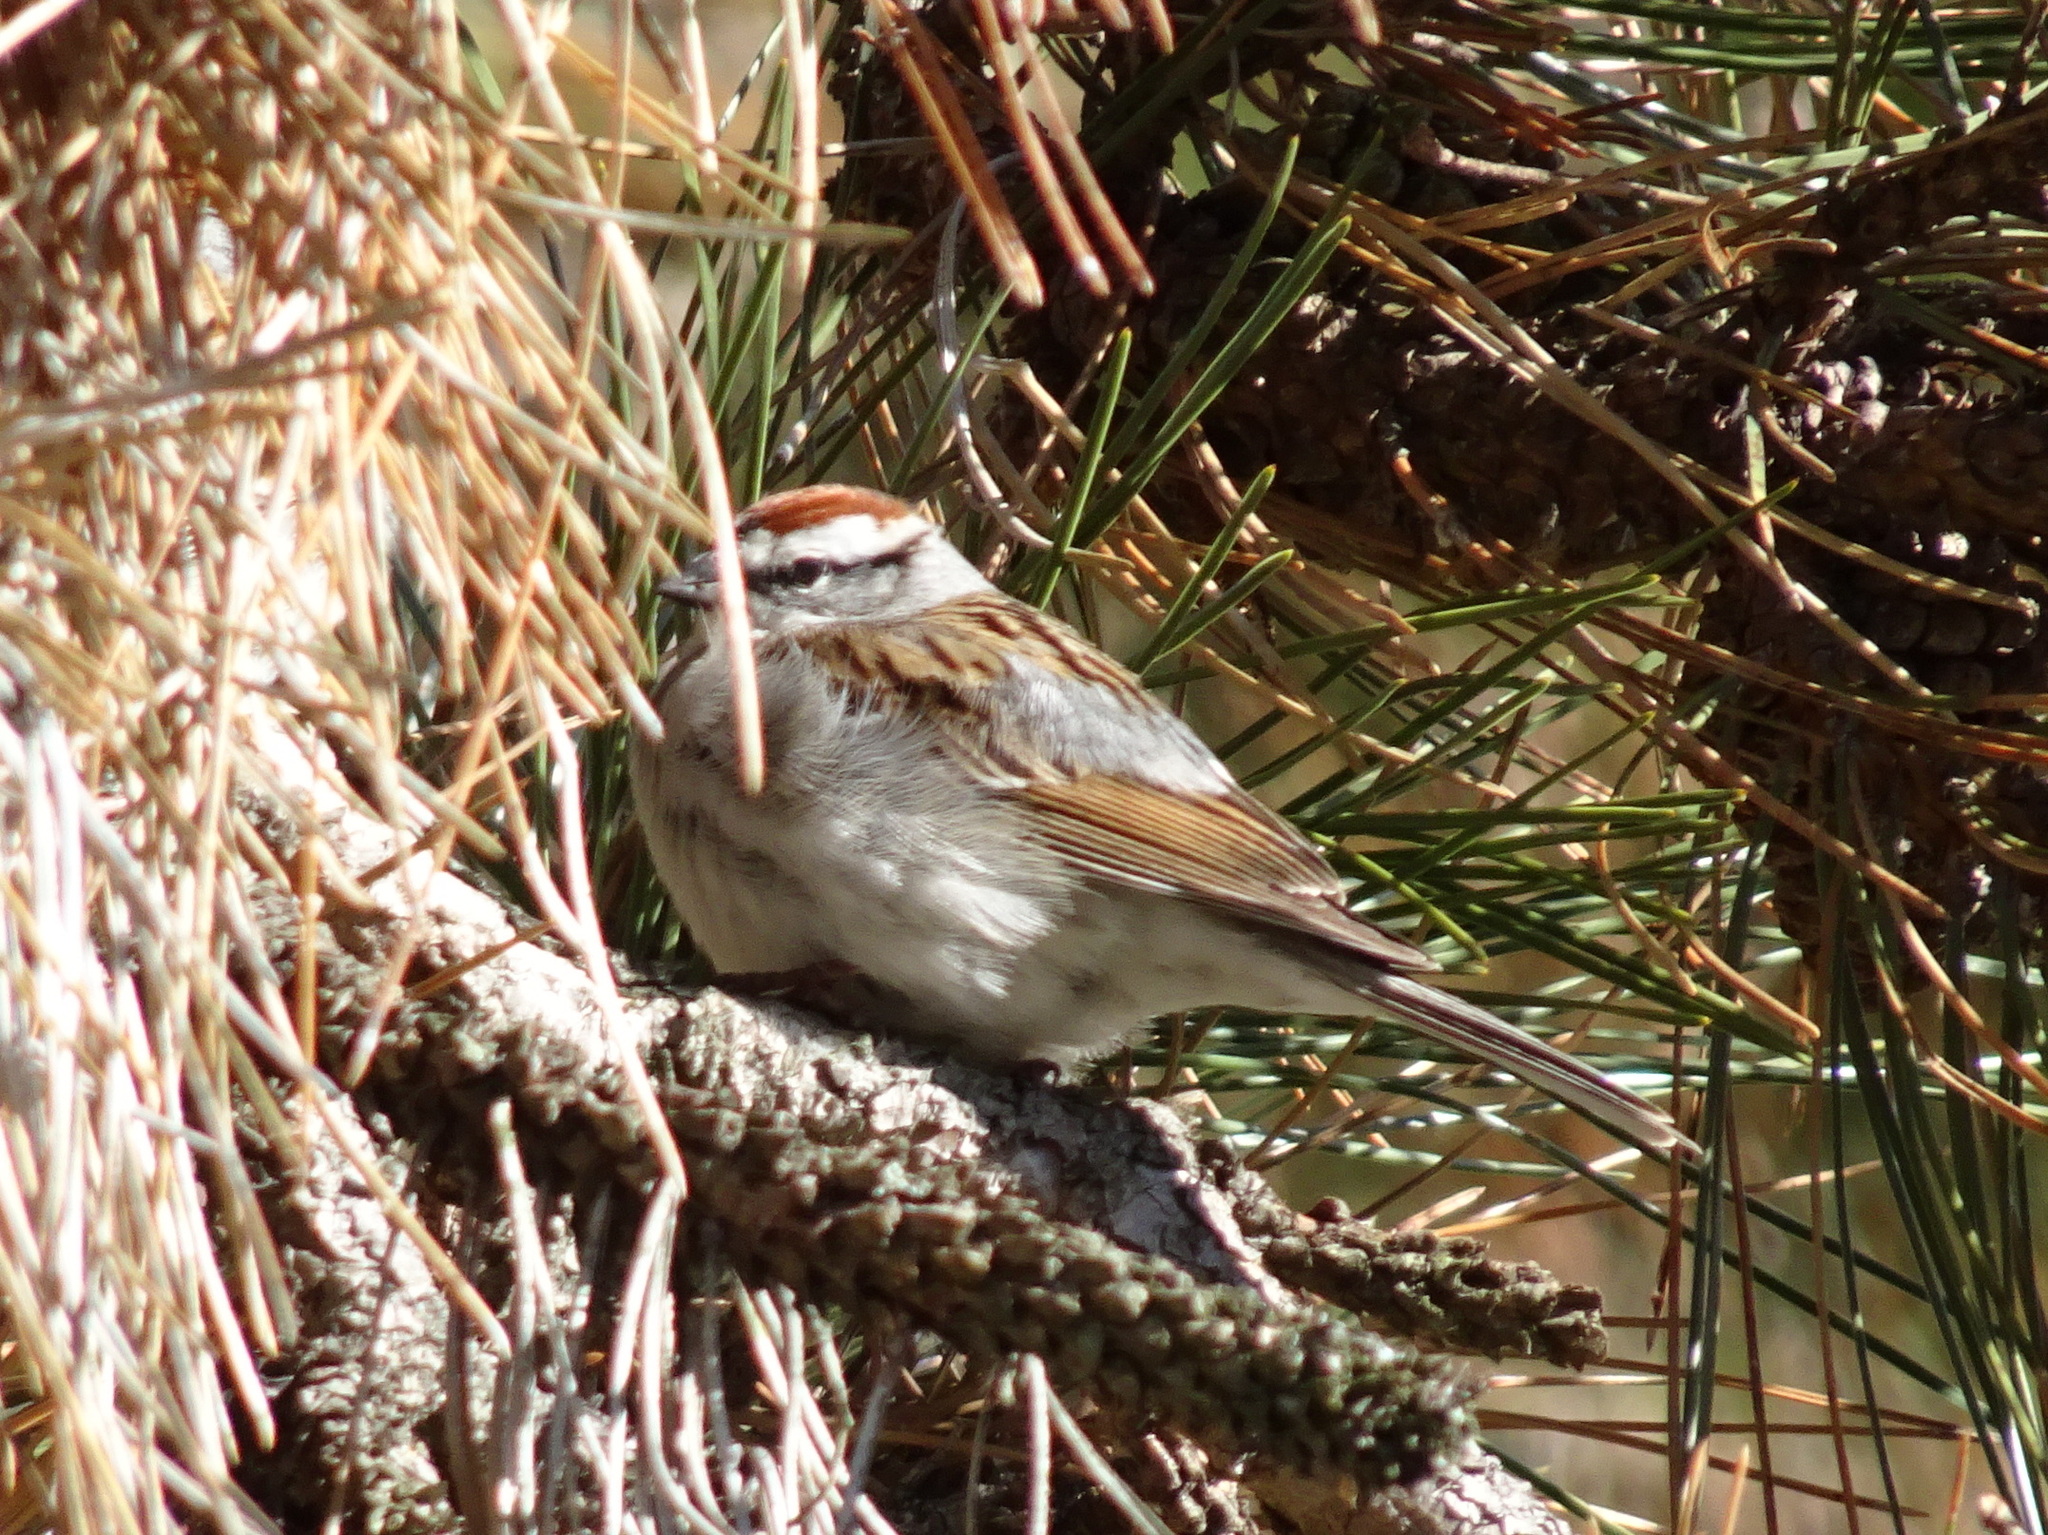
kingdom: Animalia
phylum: Chordata
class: Aves
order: Passeriformes
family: Passerellidae
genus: Spizella
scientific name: Spizella passerina
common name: Chipping sparrow
